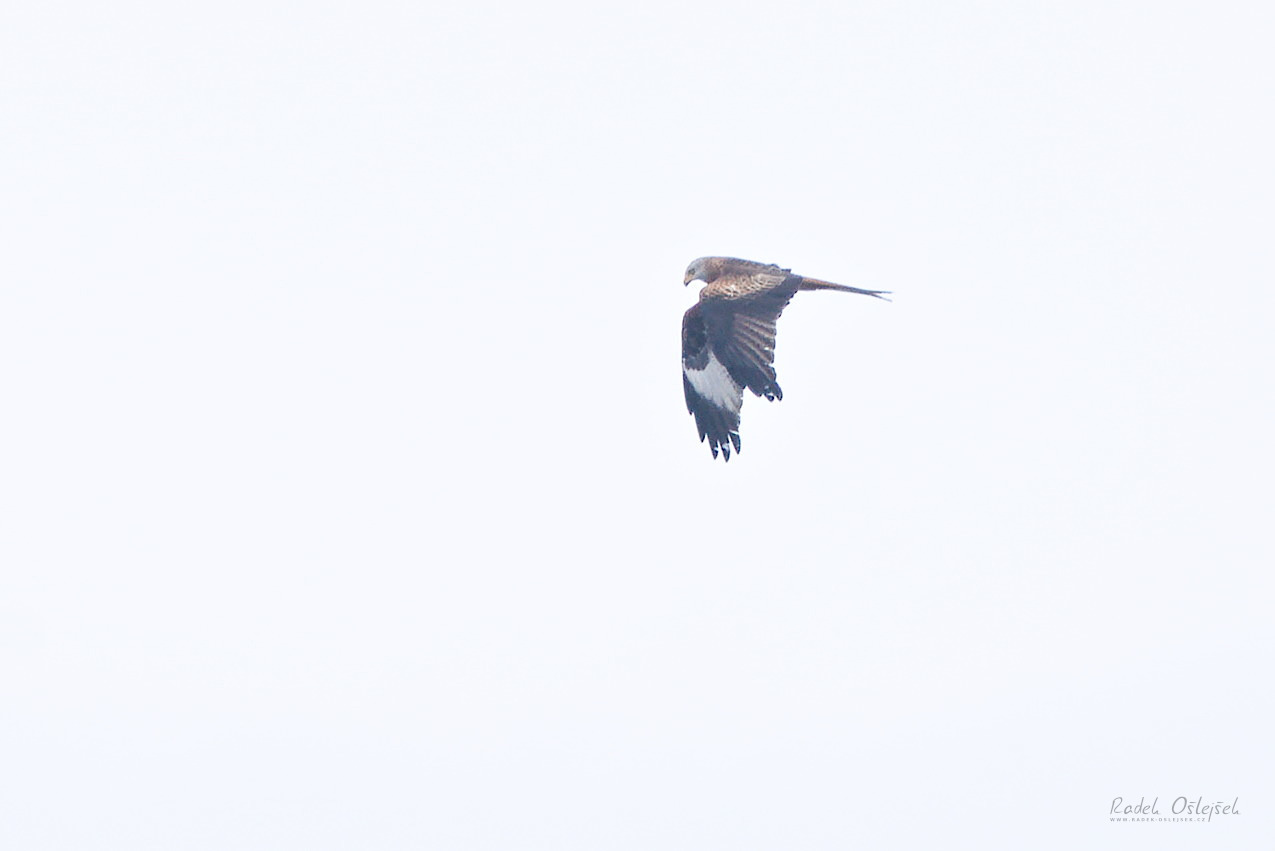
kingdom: Animalia
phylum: Chordata
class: Aves
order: Accipitriformes
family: Accipitridae
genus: Milvus
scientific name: Milvus milvus
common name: Red kite
